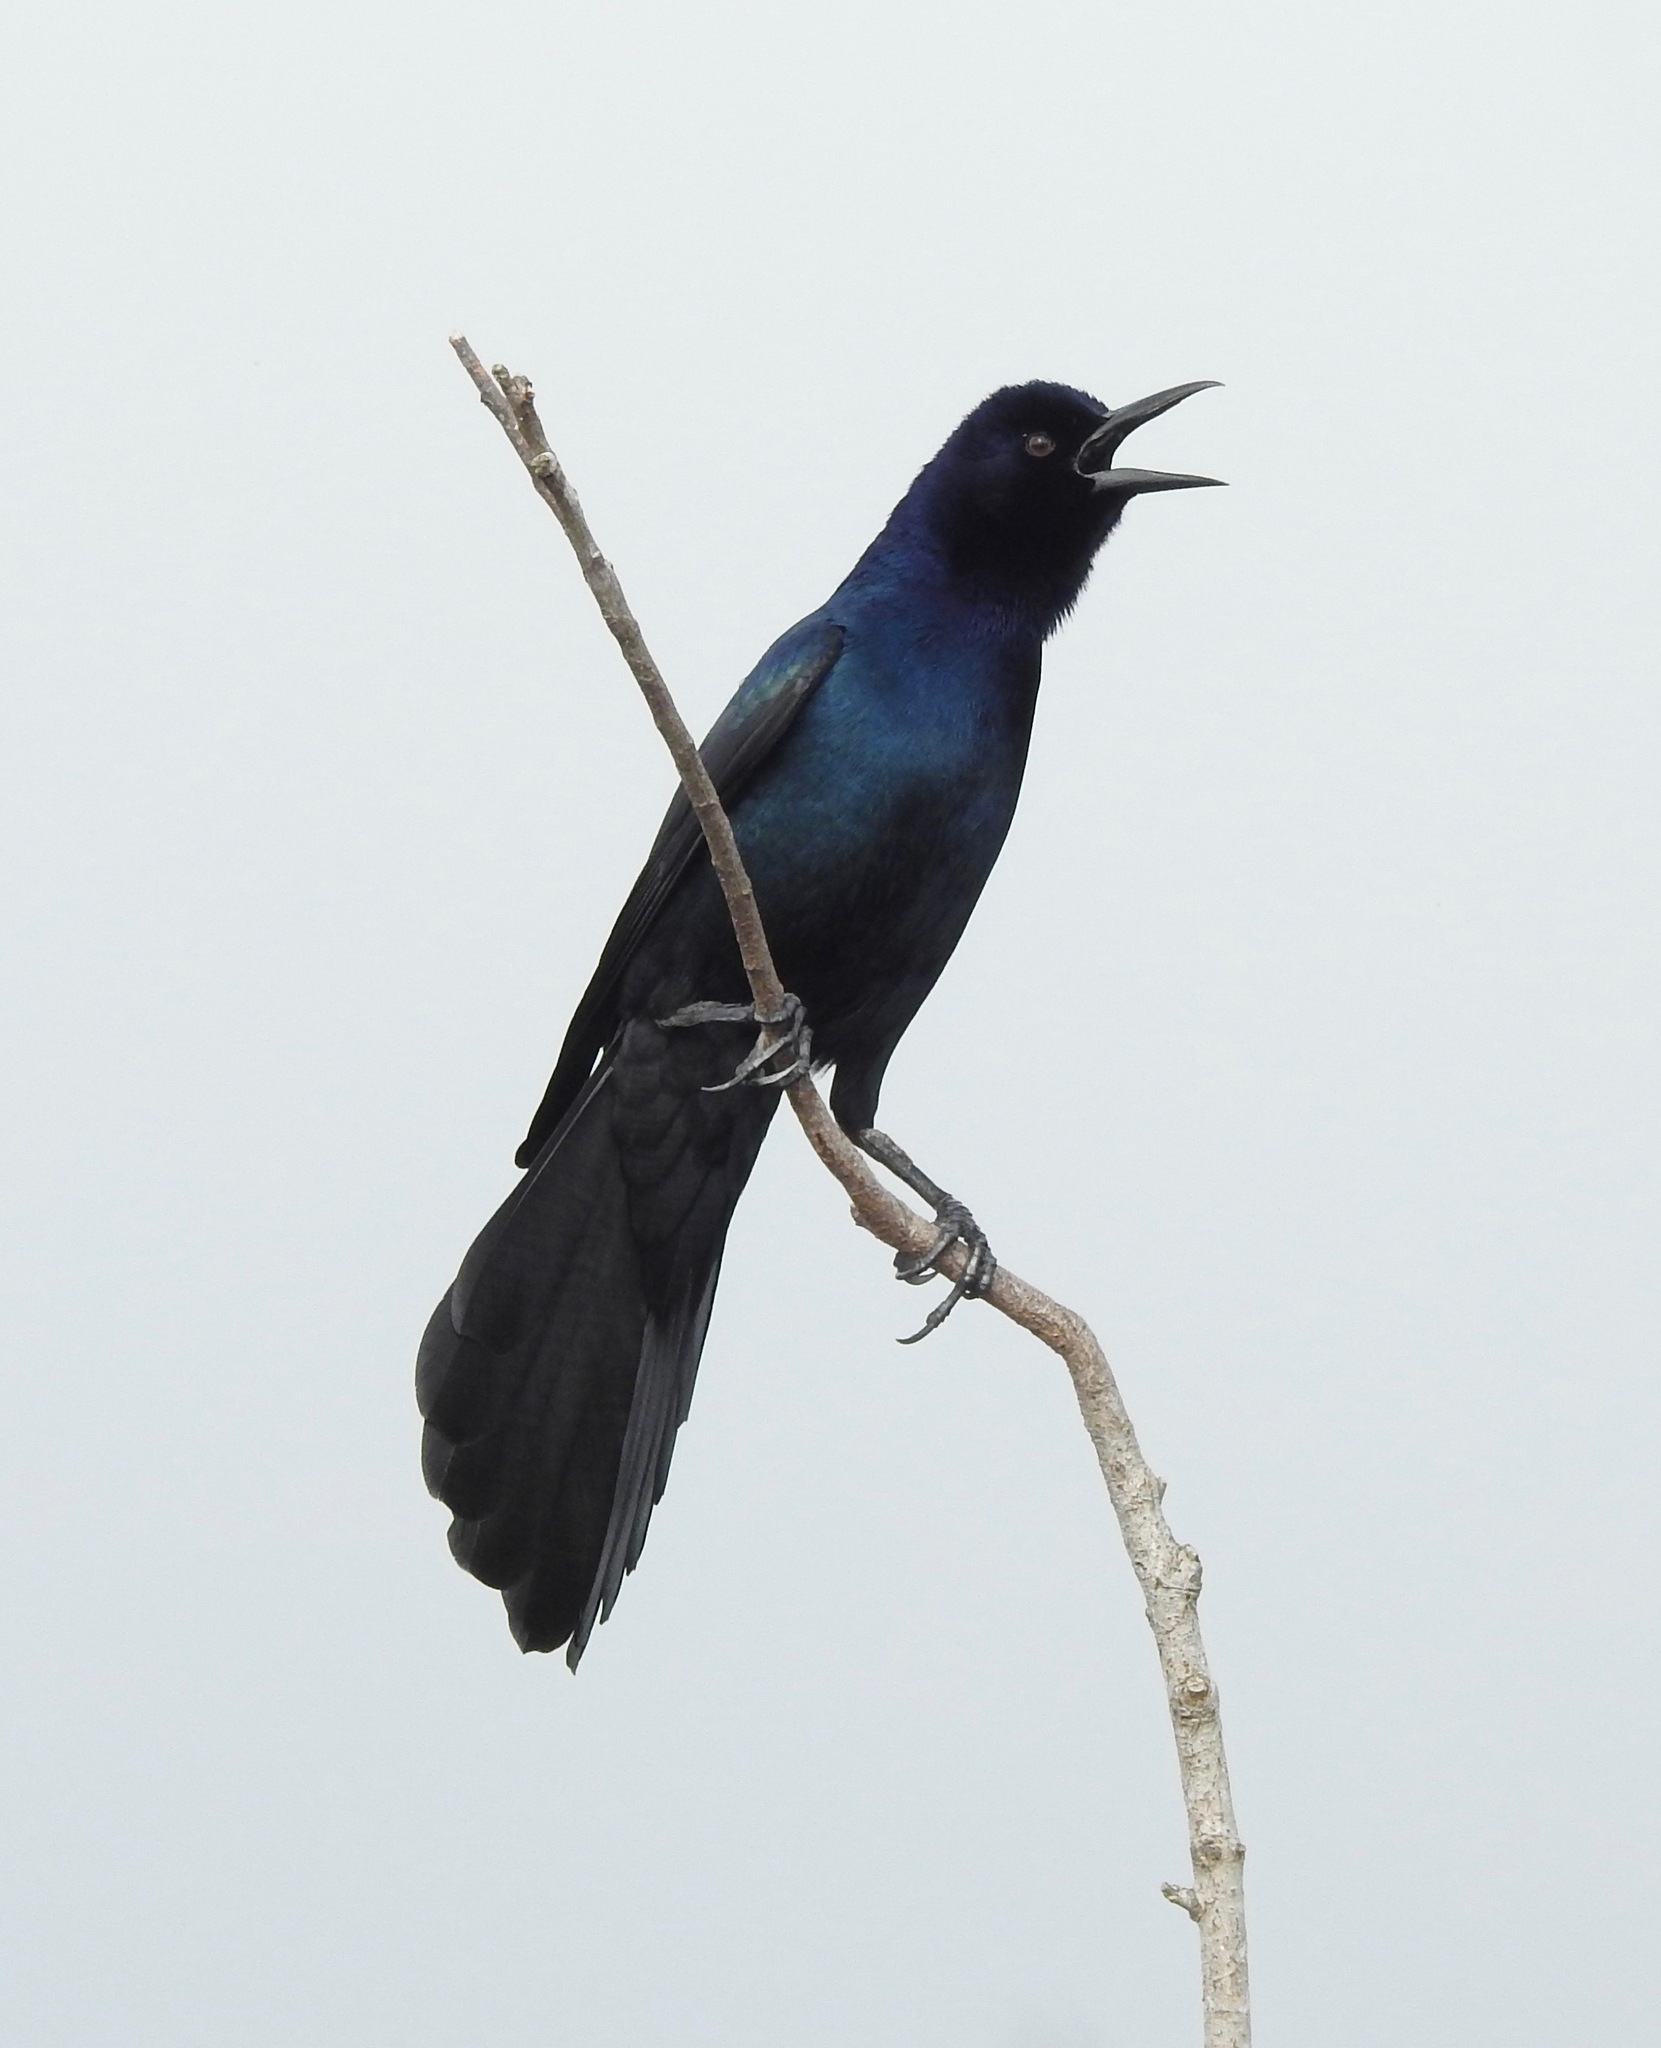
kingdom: Animalia
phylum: Chordata
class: Aves
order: Passeriformes
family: Icteridae
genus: Quiscalus
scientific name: Quiscalus major
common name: Boat-tailed grackle
